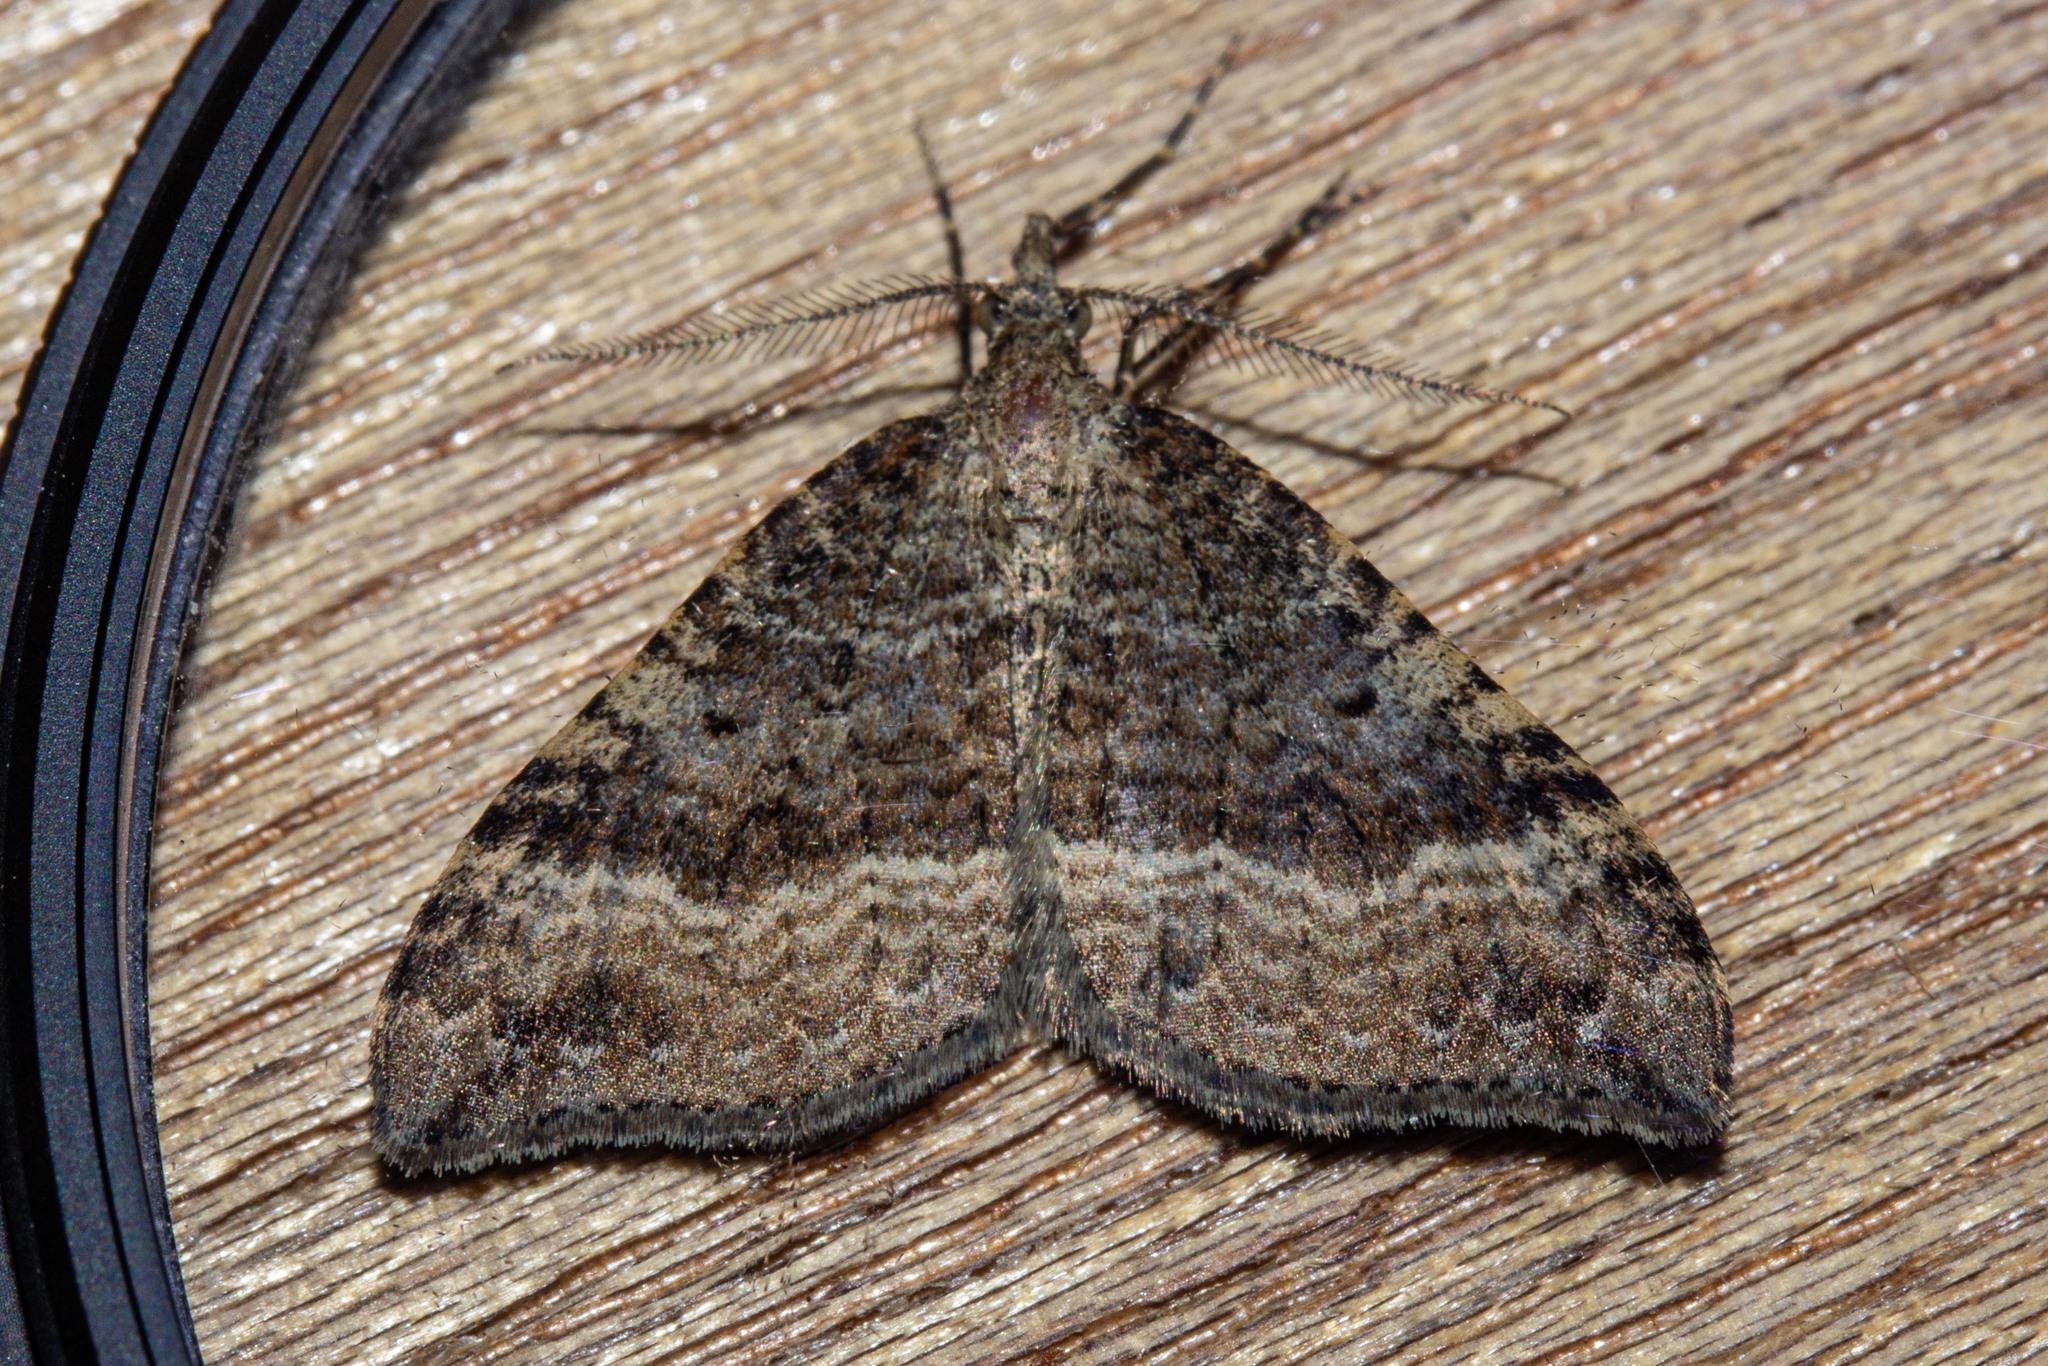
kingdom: Animalia
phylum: Arthropoda
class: Insecta
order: Lepidoptera
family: Geometridae
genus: Homodotis
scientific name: Homodotis falcata
